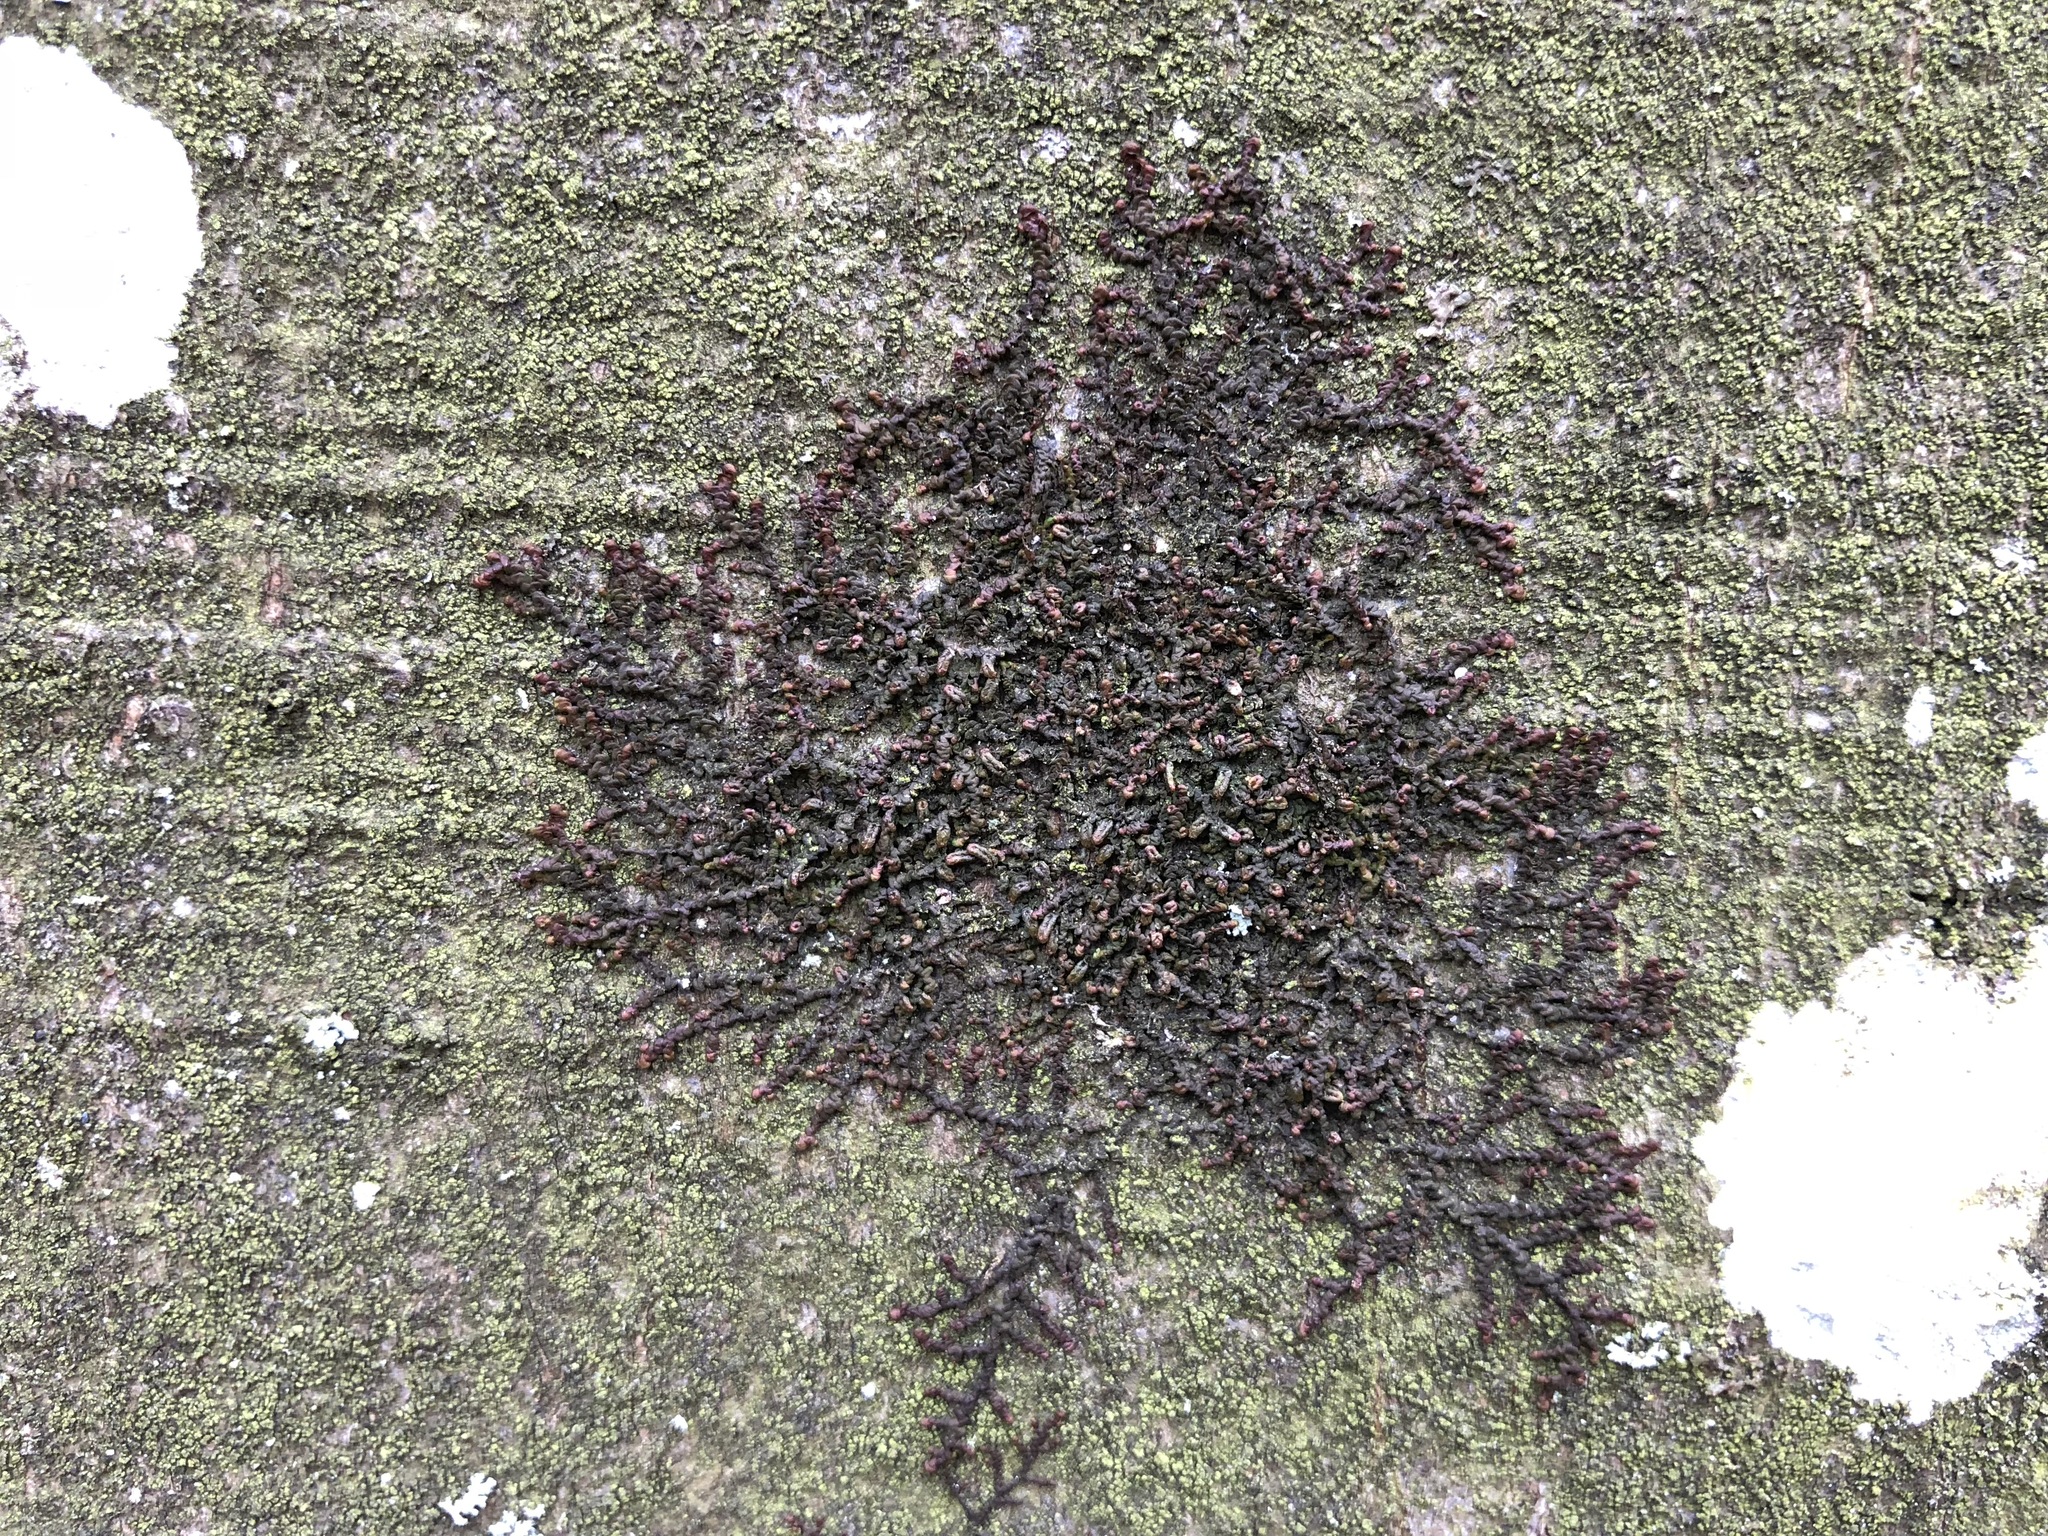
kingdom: Plantae
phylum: Marchantiophyta
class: Jungermanniopsida
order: Porellales
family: Frullaniaceae
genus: Frullania
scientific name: Frullania dilatata
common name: Dilated scalewort
